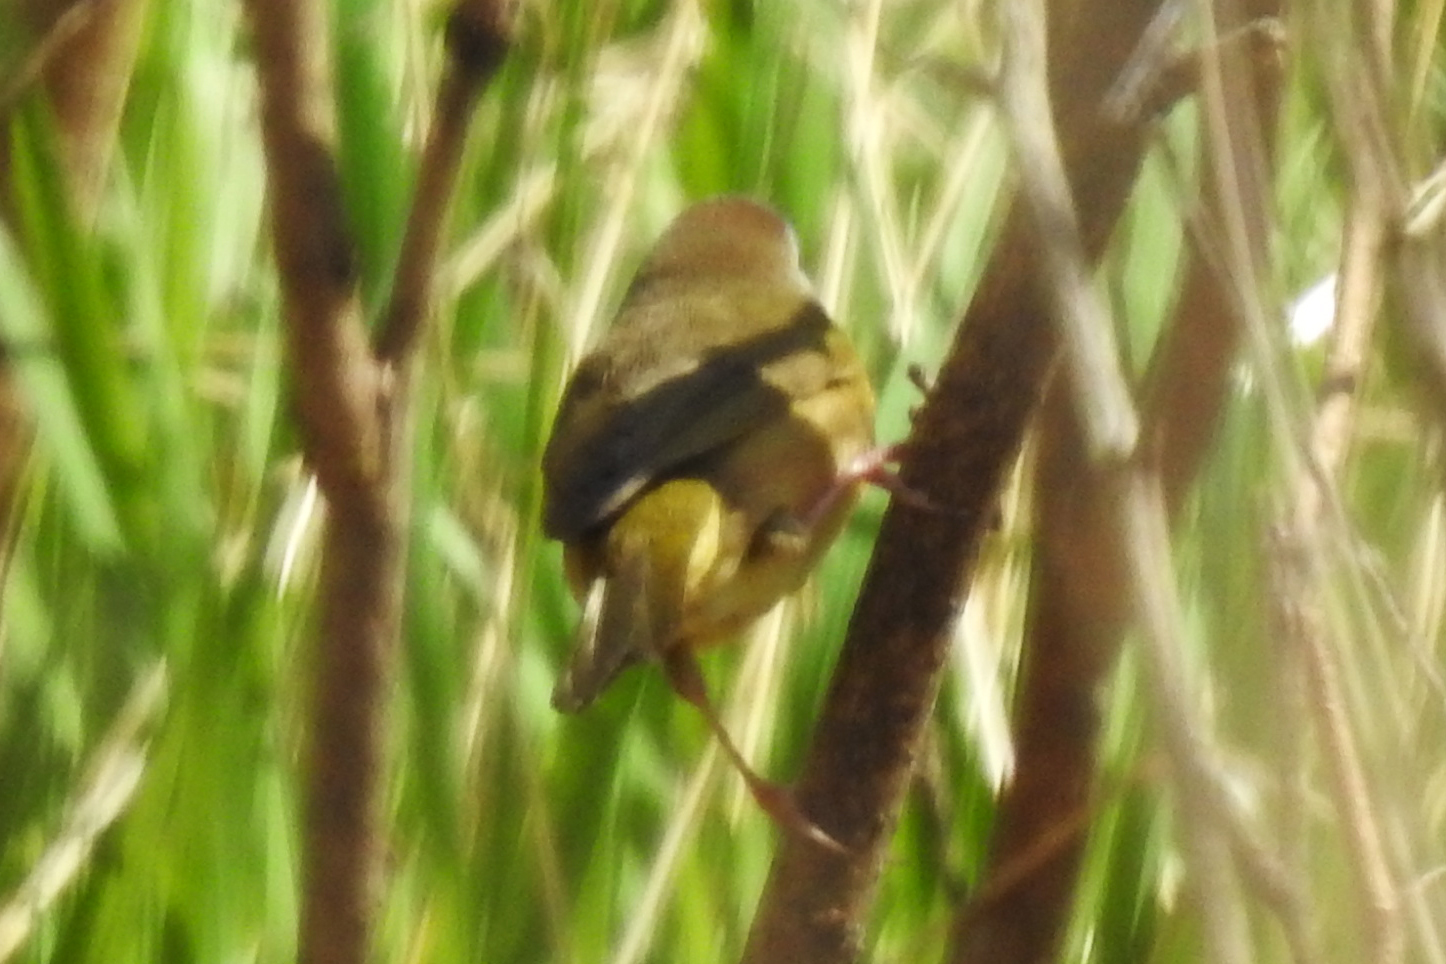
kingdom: Animalia
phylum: Chordata
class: Aves
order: Passeriformes
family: Parulidae
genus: Geothlypis
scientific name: Geothlypis trichas
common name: Common yellowthroat
